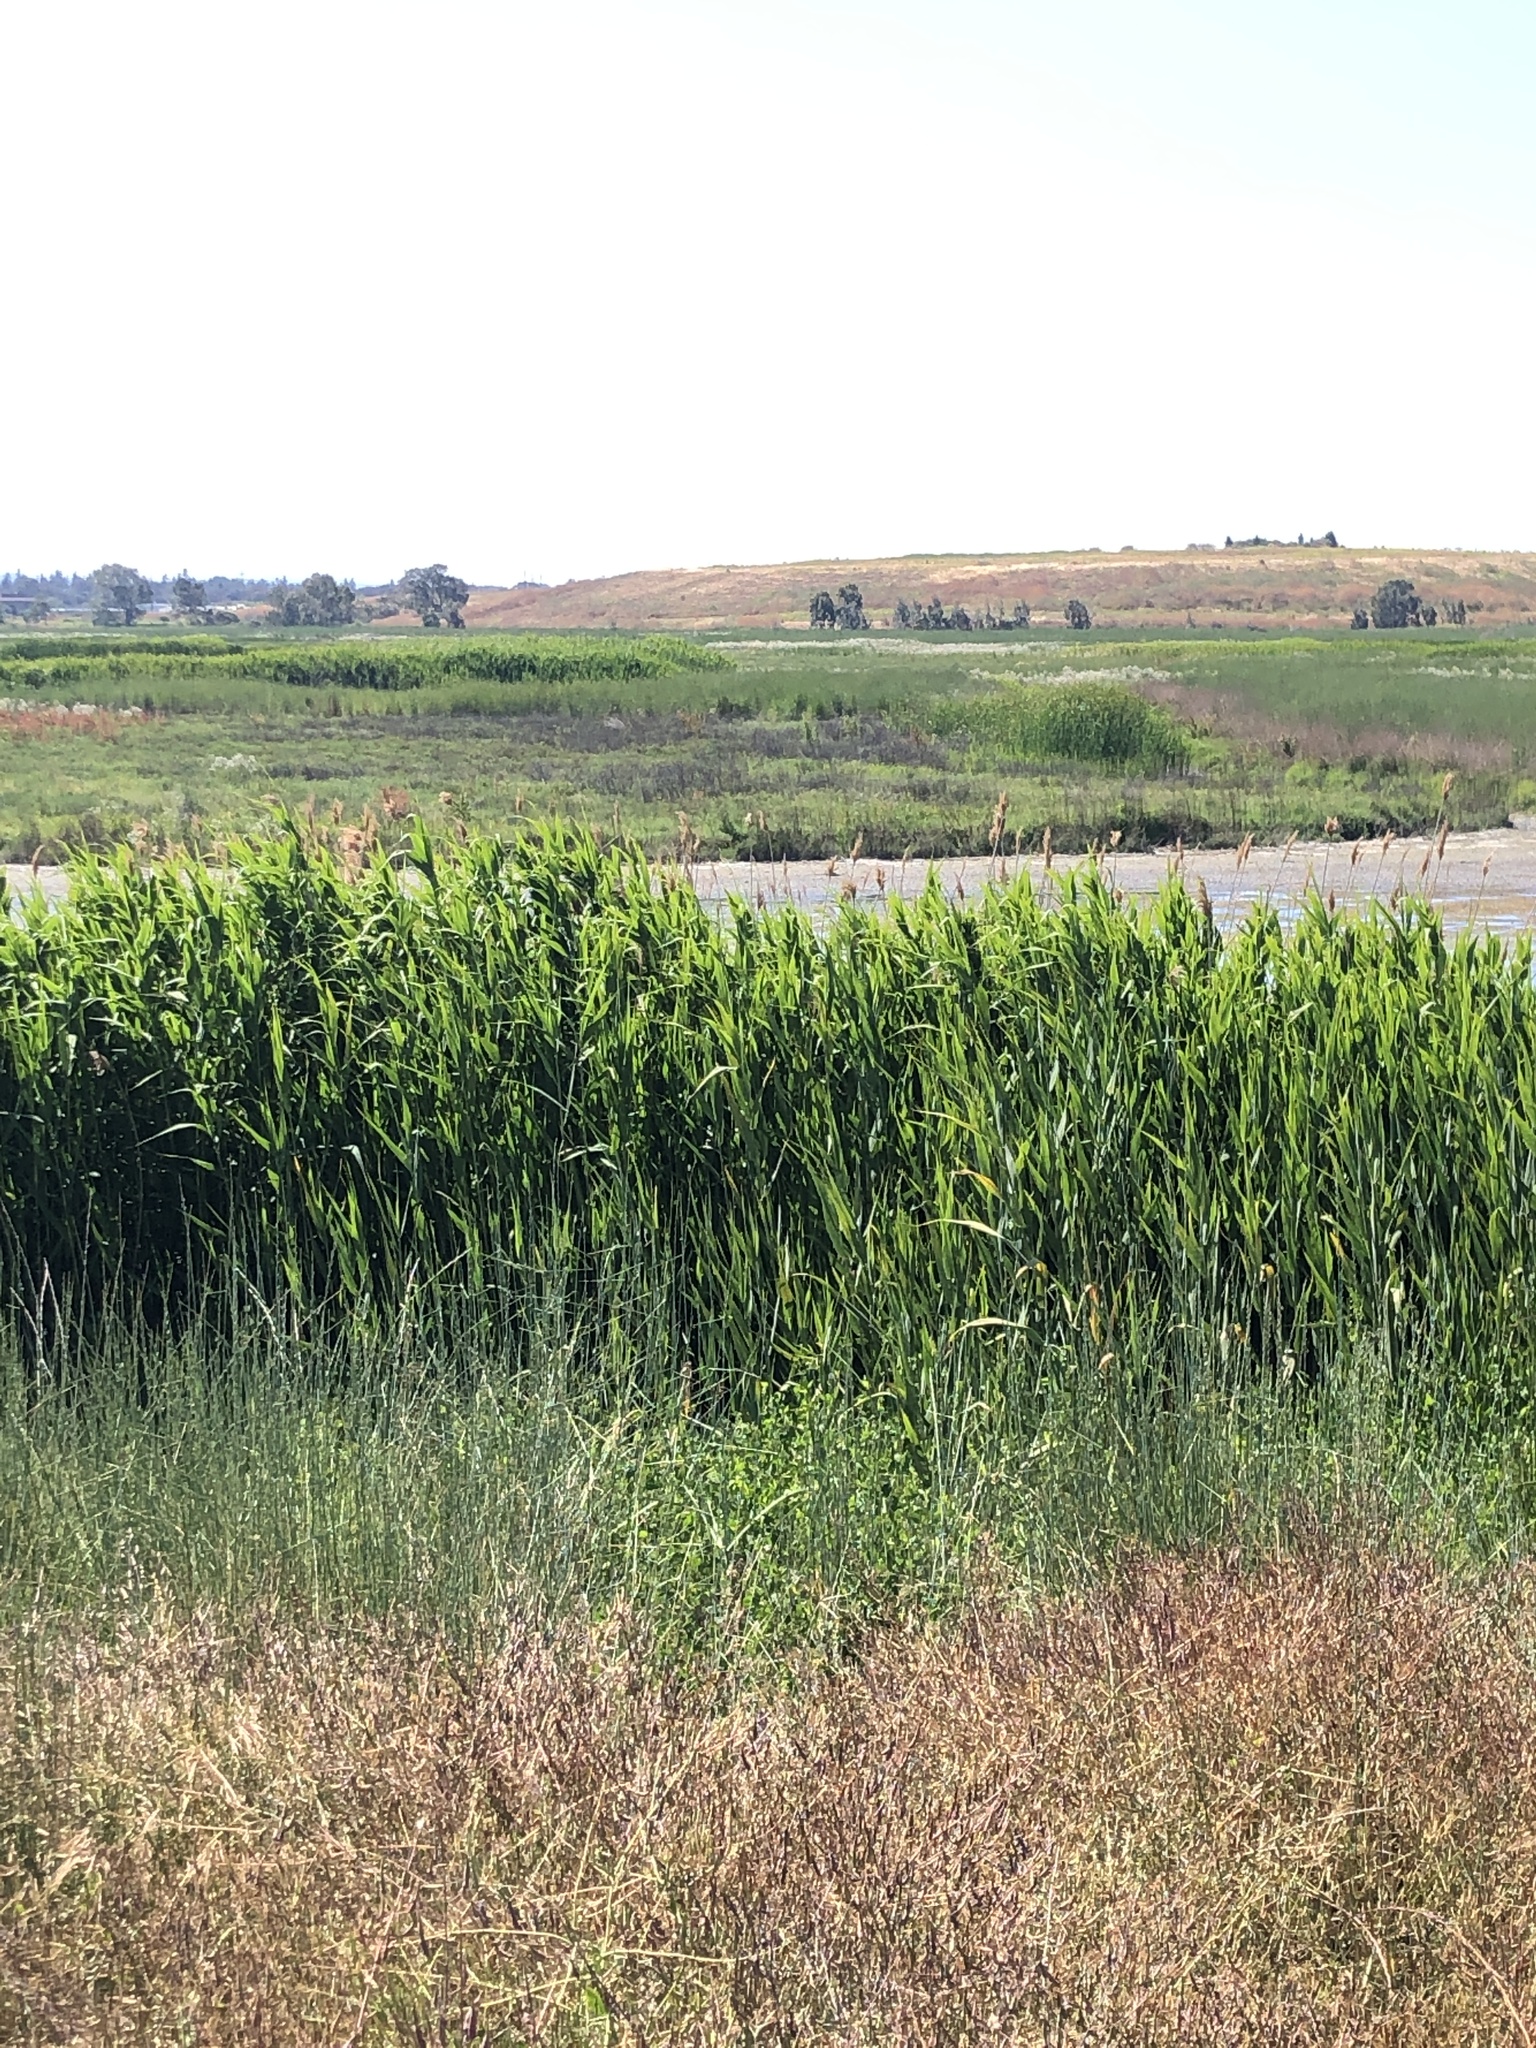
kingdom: Plantae
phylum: Tracheophyta
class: Liliopsida
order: Poales
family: Poaceae
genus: Phragmites
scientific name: Phragmites australis
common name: Common reed
